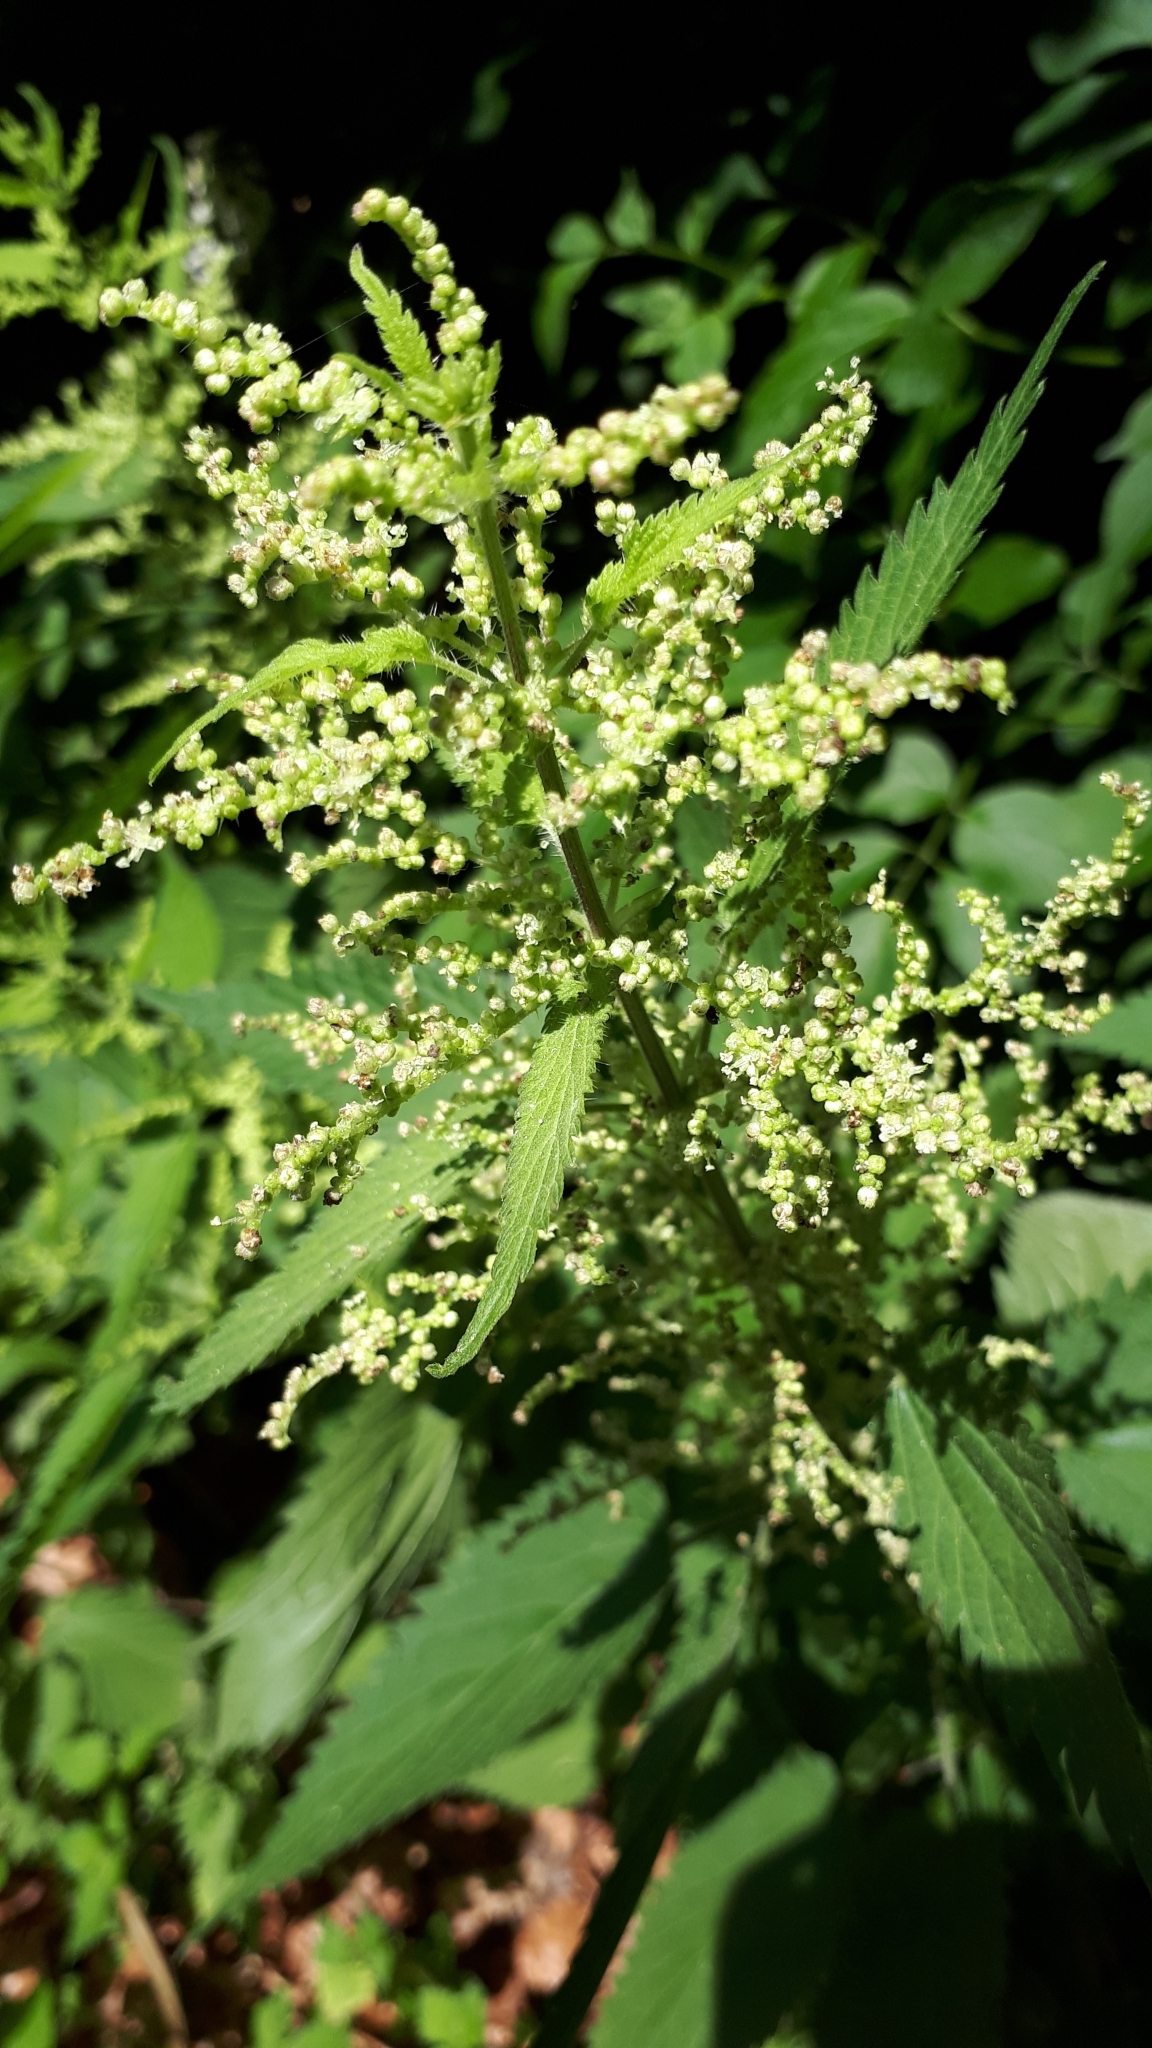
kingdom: Plantae
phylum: Tracheophyta
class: Magnoliopsida
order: Rosales
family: Urticaceae
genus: Urtica
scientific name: Urtica dioica
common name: Common nettle
